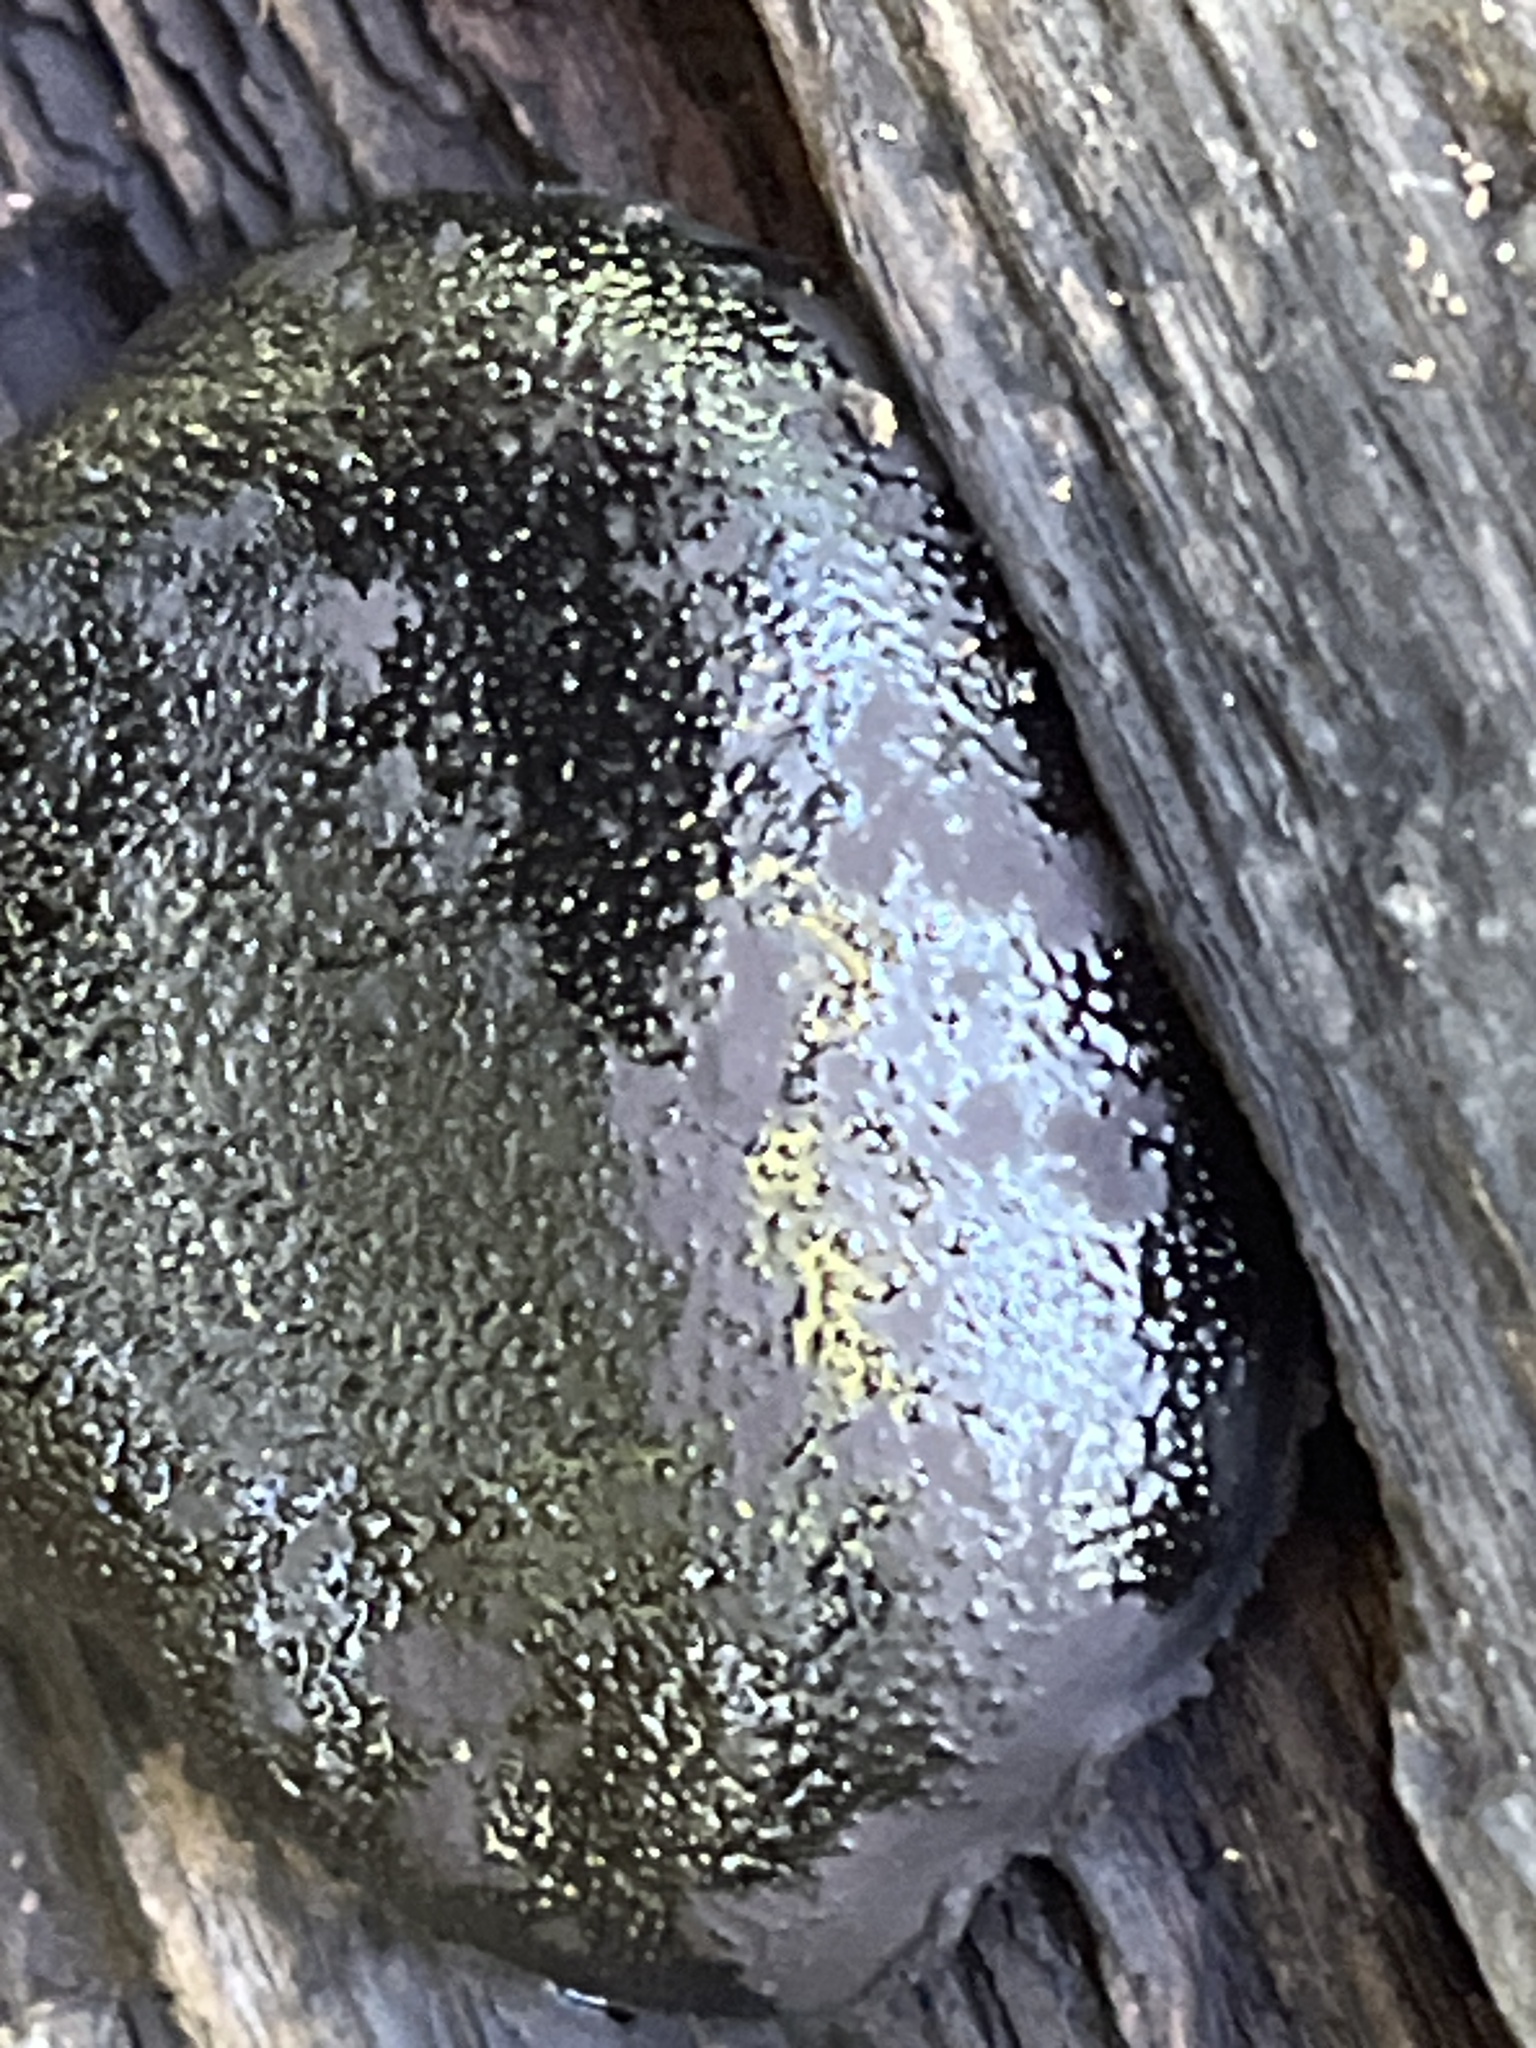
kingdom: Fungi
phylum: Ascomycota
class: Sordariomycetes
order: Boliniales
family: Boliniaceae
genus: Camarops
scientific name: Camarops petersii
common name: Dog's nose fungus
